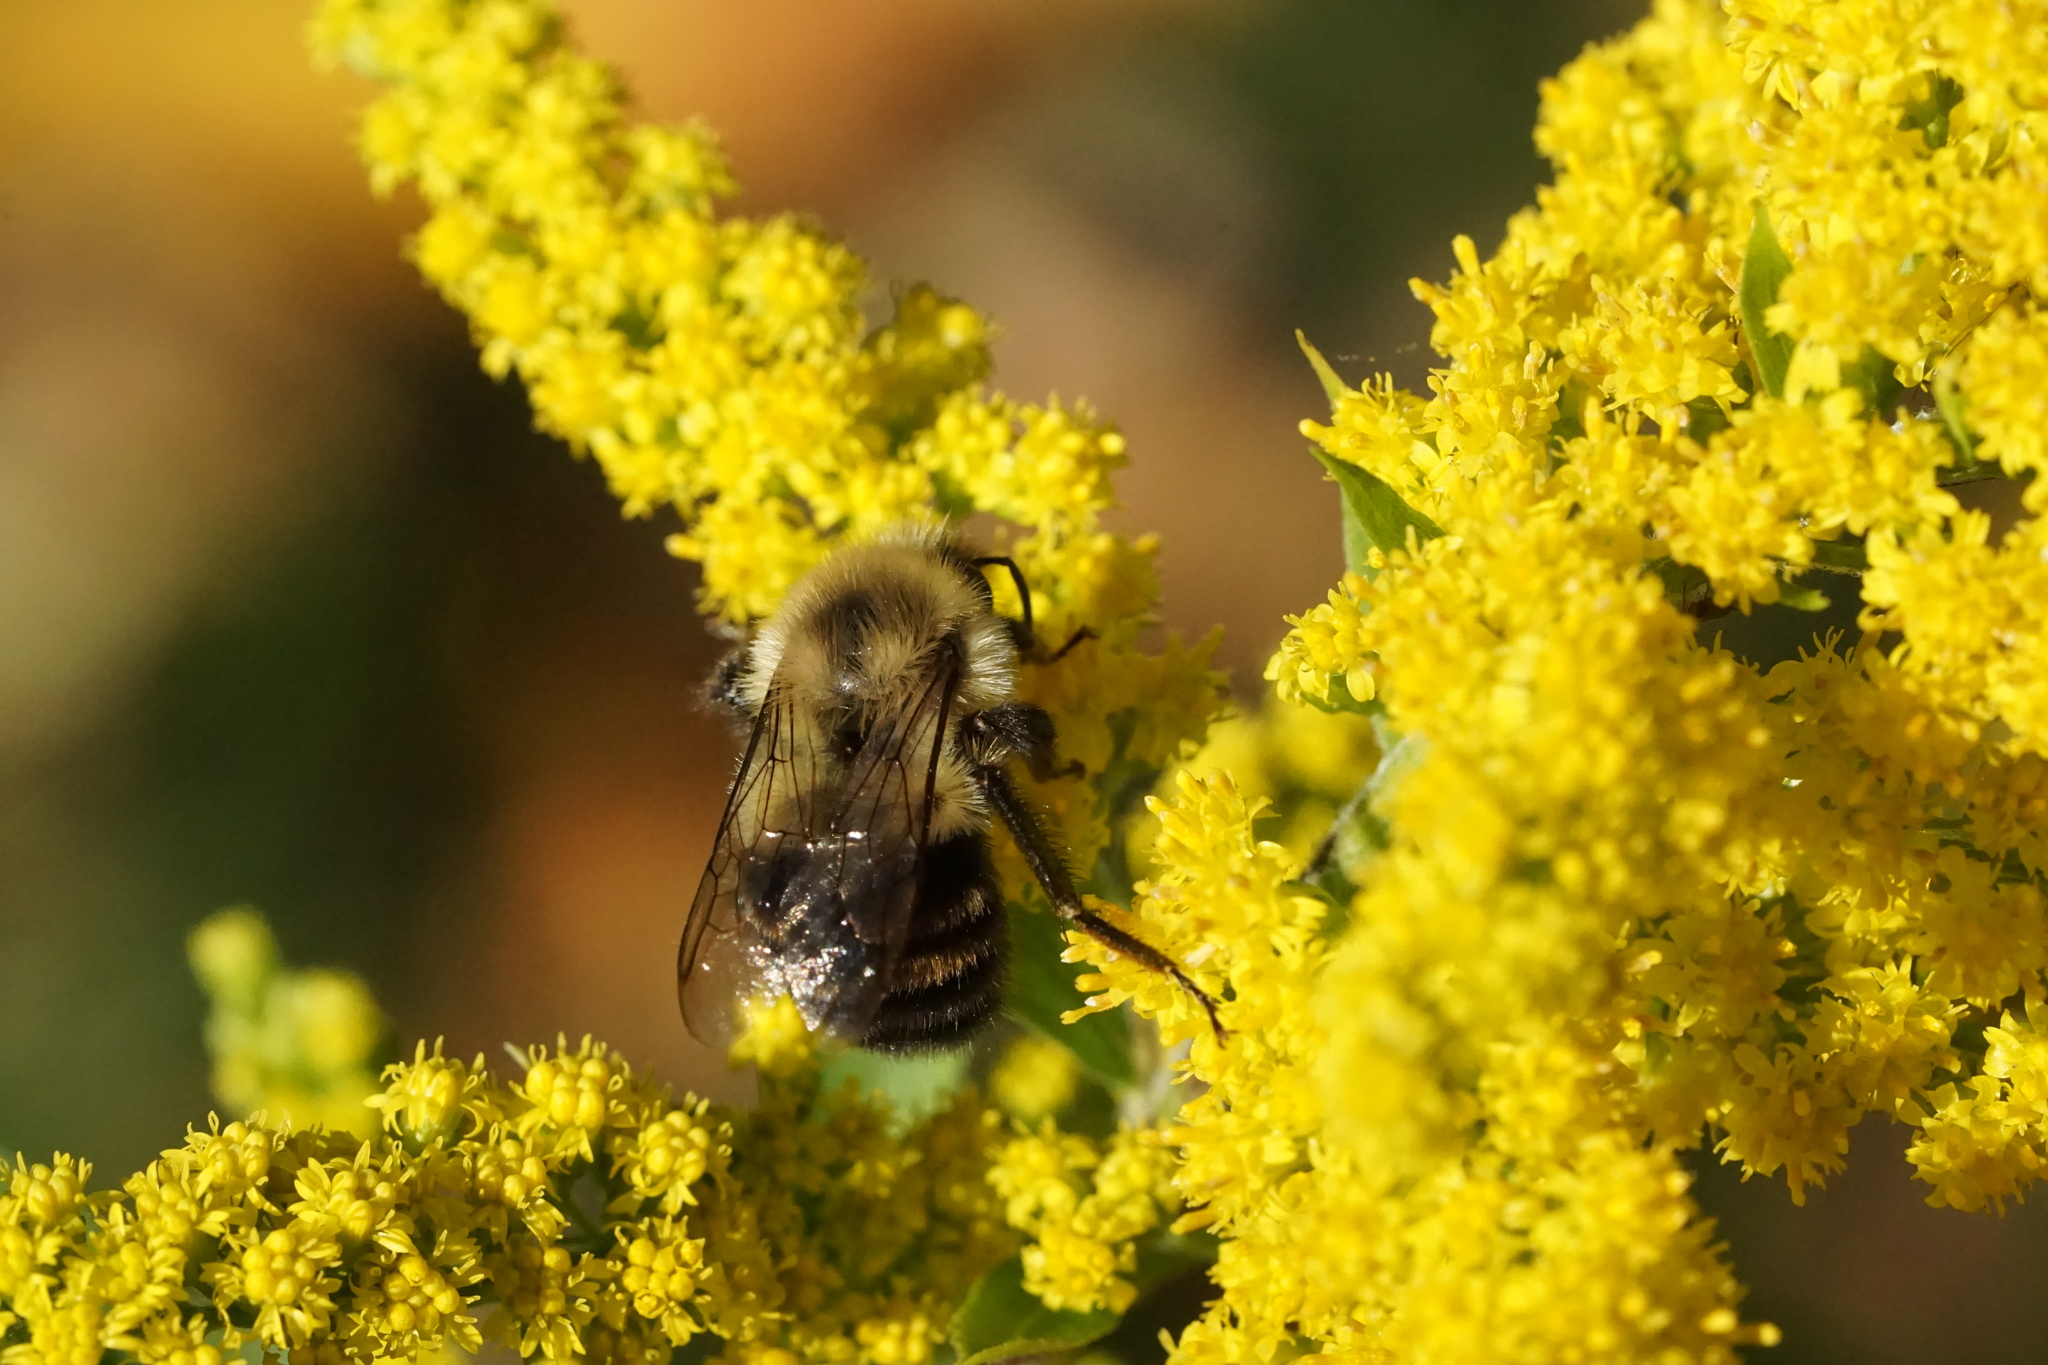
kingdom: Animalia
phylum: Arthropoda
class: Insecta
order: Hymenoptera
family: Apidae
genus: Bombus
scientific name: Bombus impatiens
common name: Common eastern bumble bee
